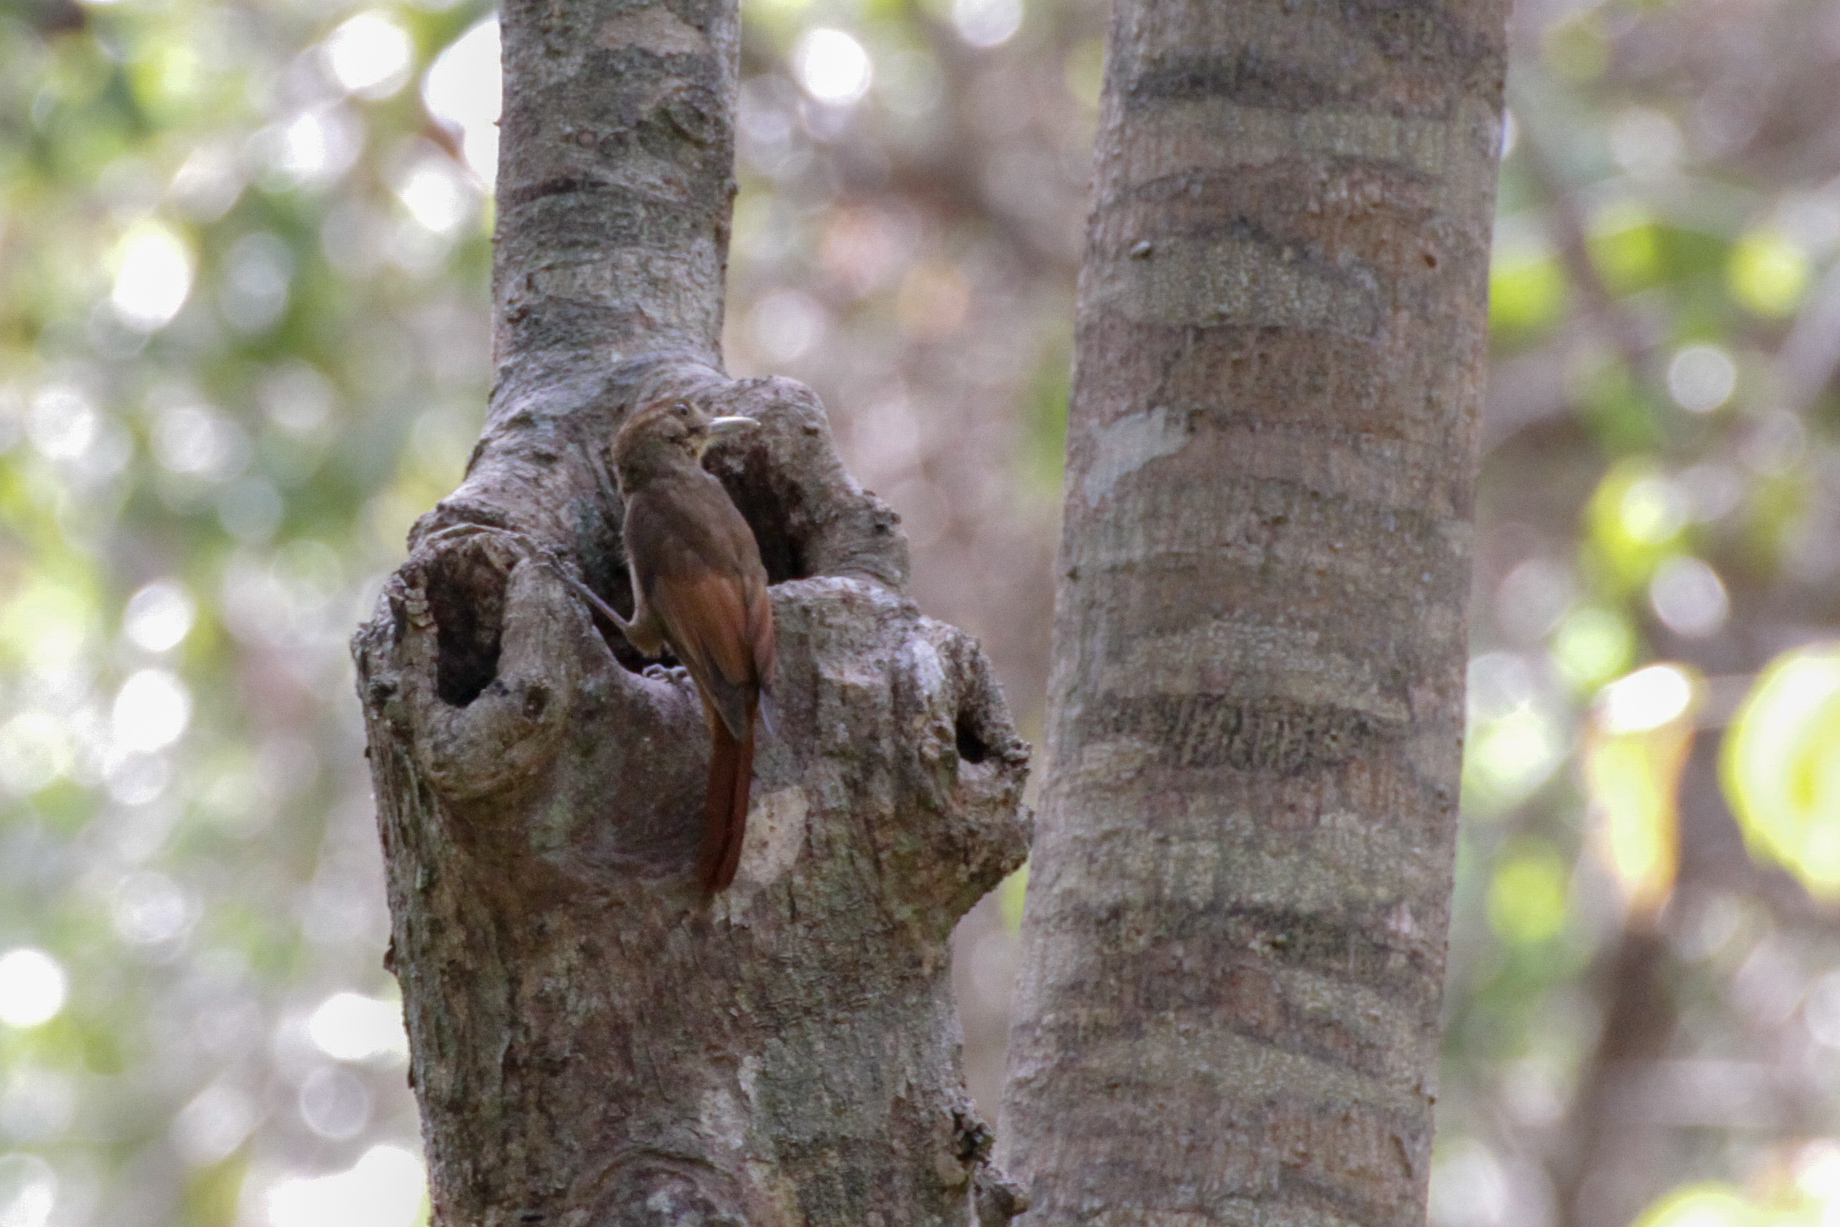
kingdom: Animalia
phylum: Chordata
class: Aves
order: Passeriformes
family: Furnariidae
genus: Dendrocincla
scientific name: Dendrocincla anabatina
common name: Tawny-winged woodcreeper
